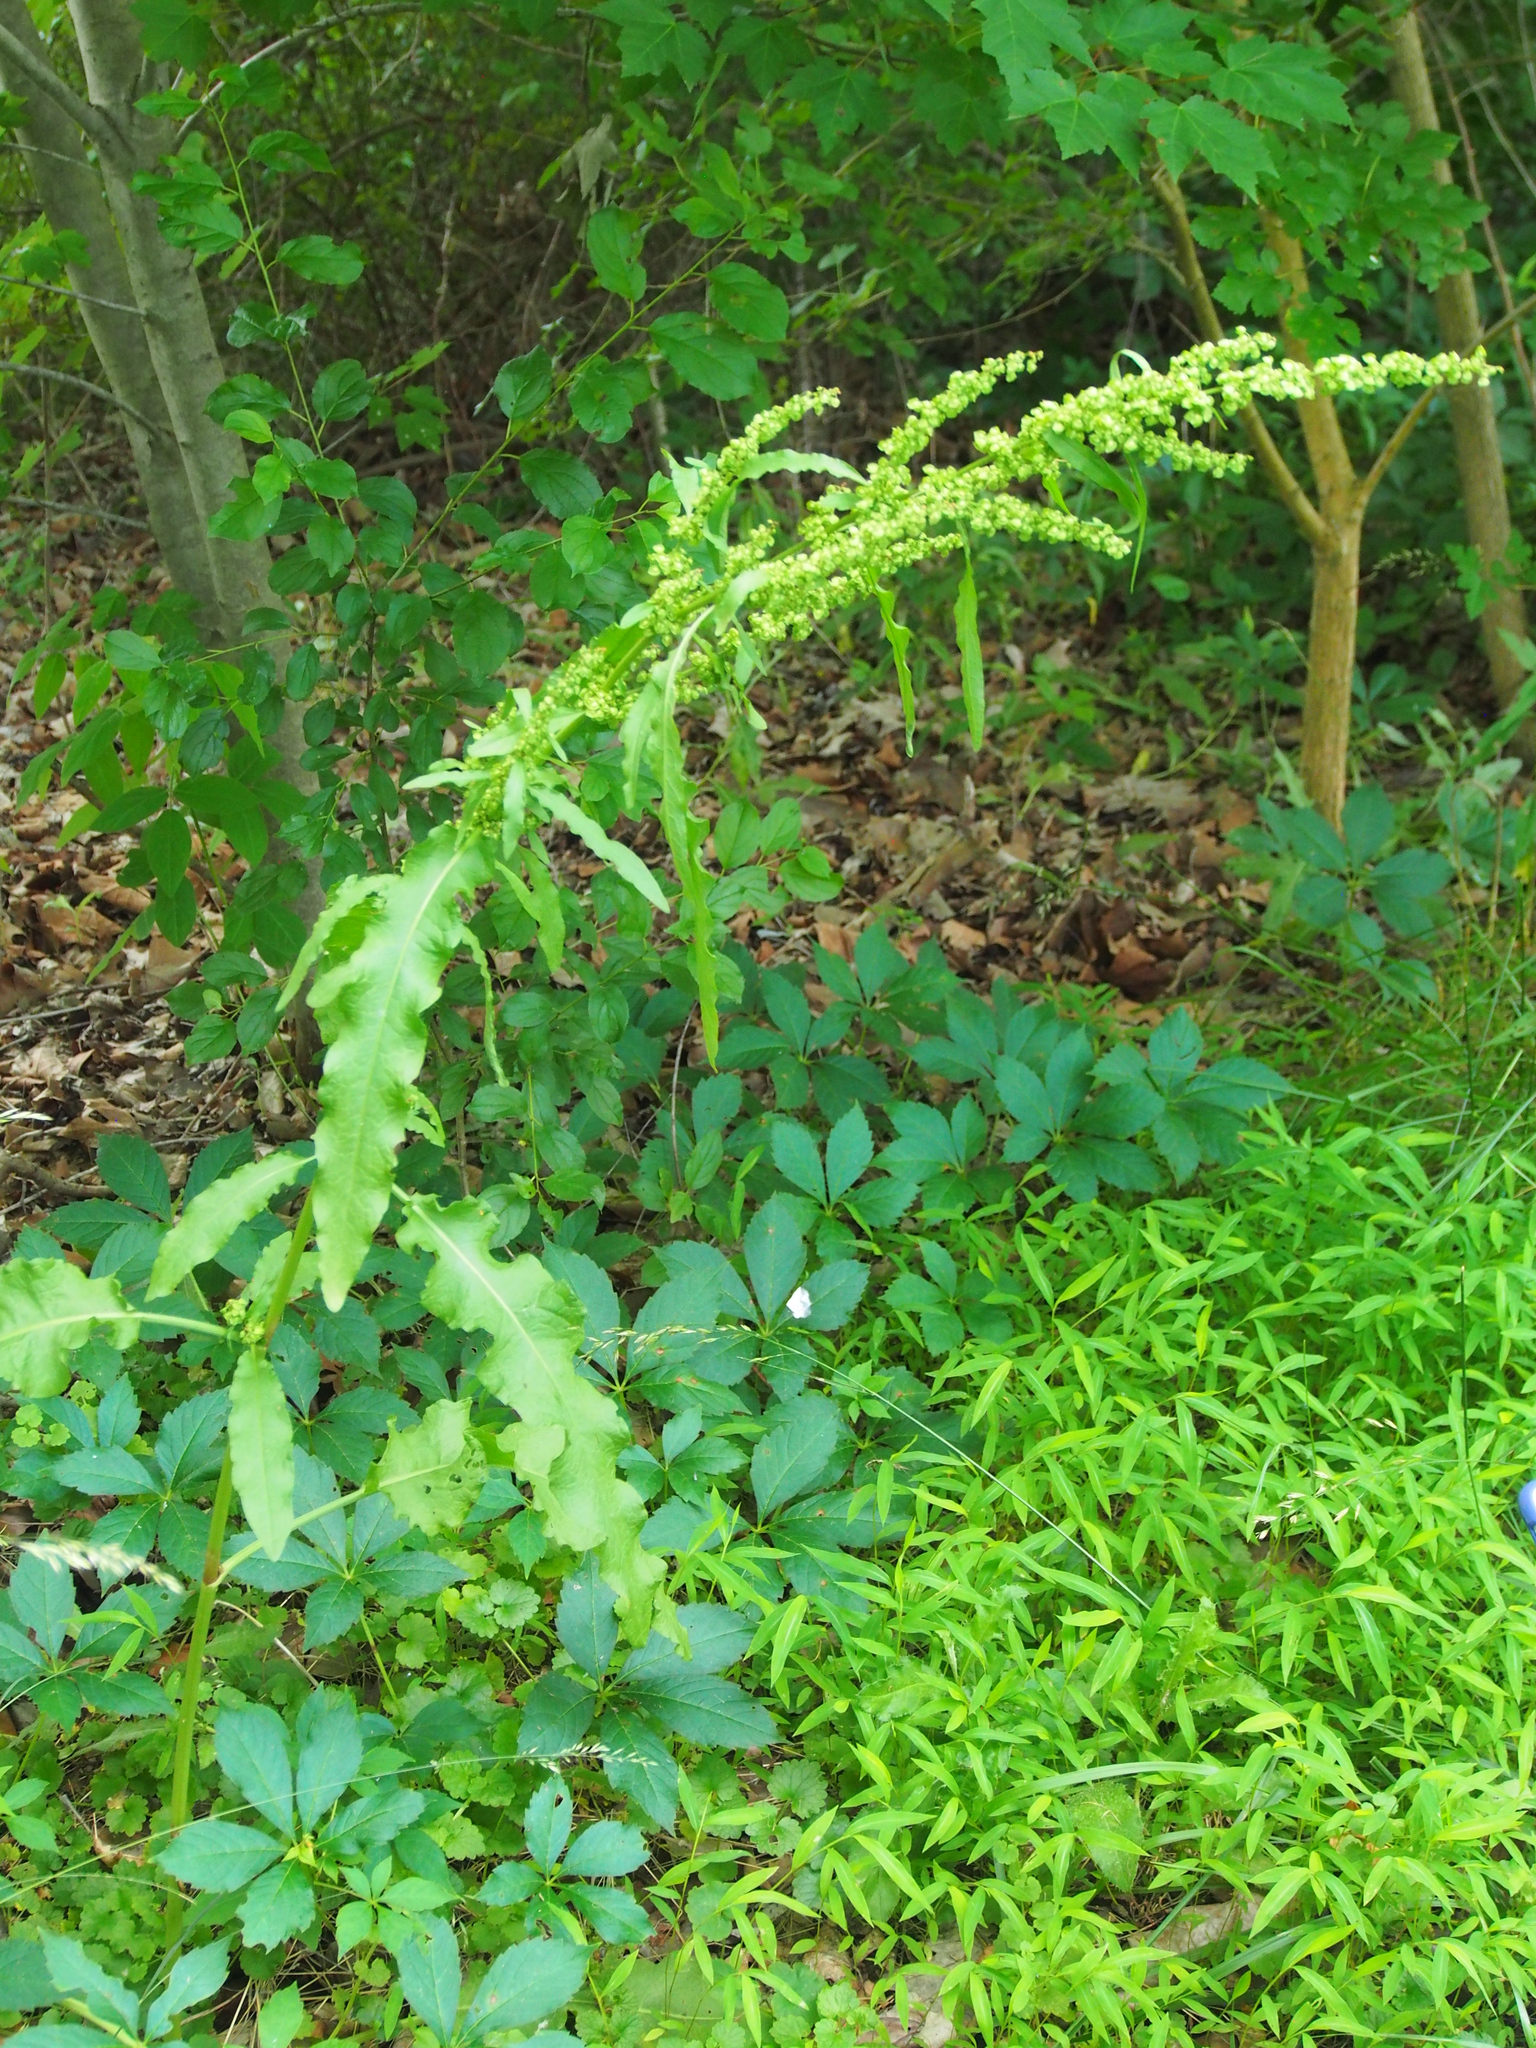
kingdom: Plantae
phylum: Tracheophyta
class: Magnoliopsida
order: Caryophyllales
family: Polygonaceae
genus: Rumex
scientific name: Rumex crispus
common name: Curled dock
